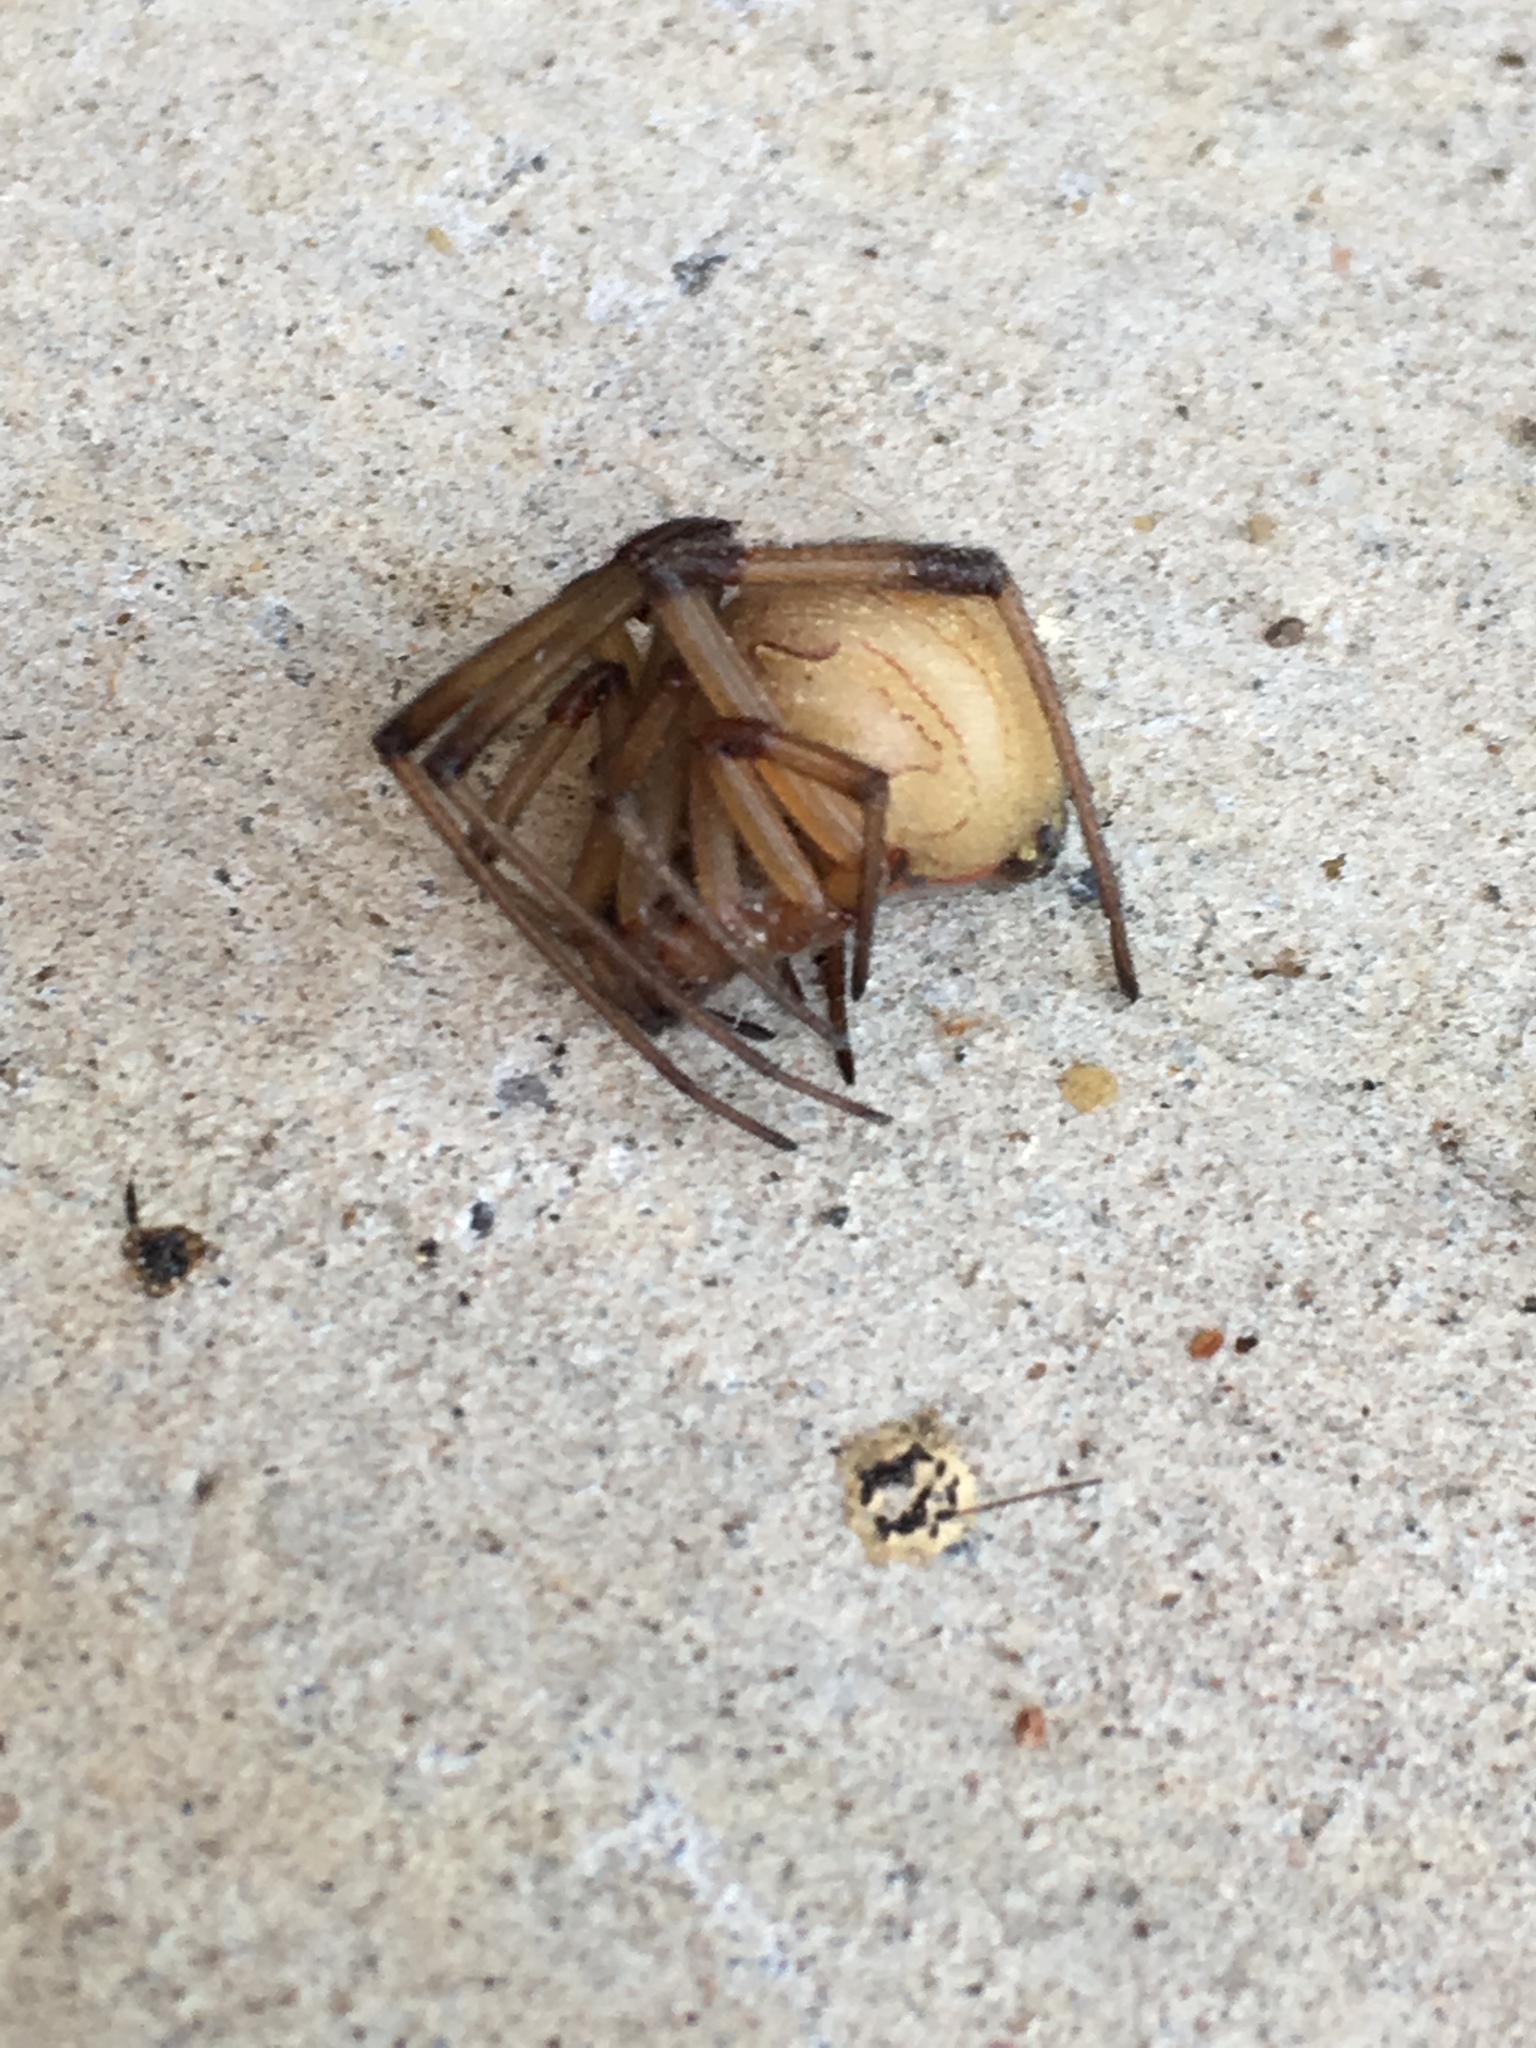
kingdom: Animalia
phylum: Arthropoda
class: Arachnida
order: Araneae
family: Theridiidae
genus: Latrodectus
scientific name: Latrodectus geometricus
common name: Brown widow spider
